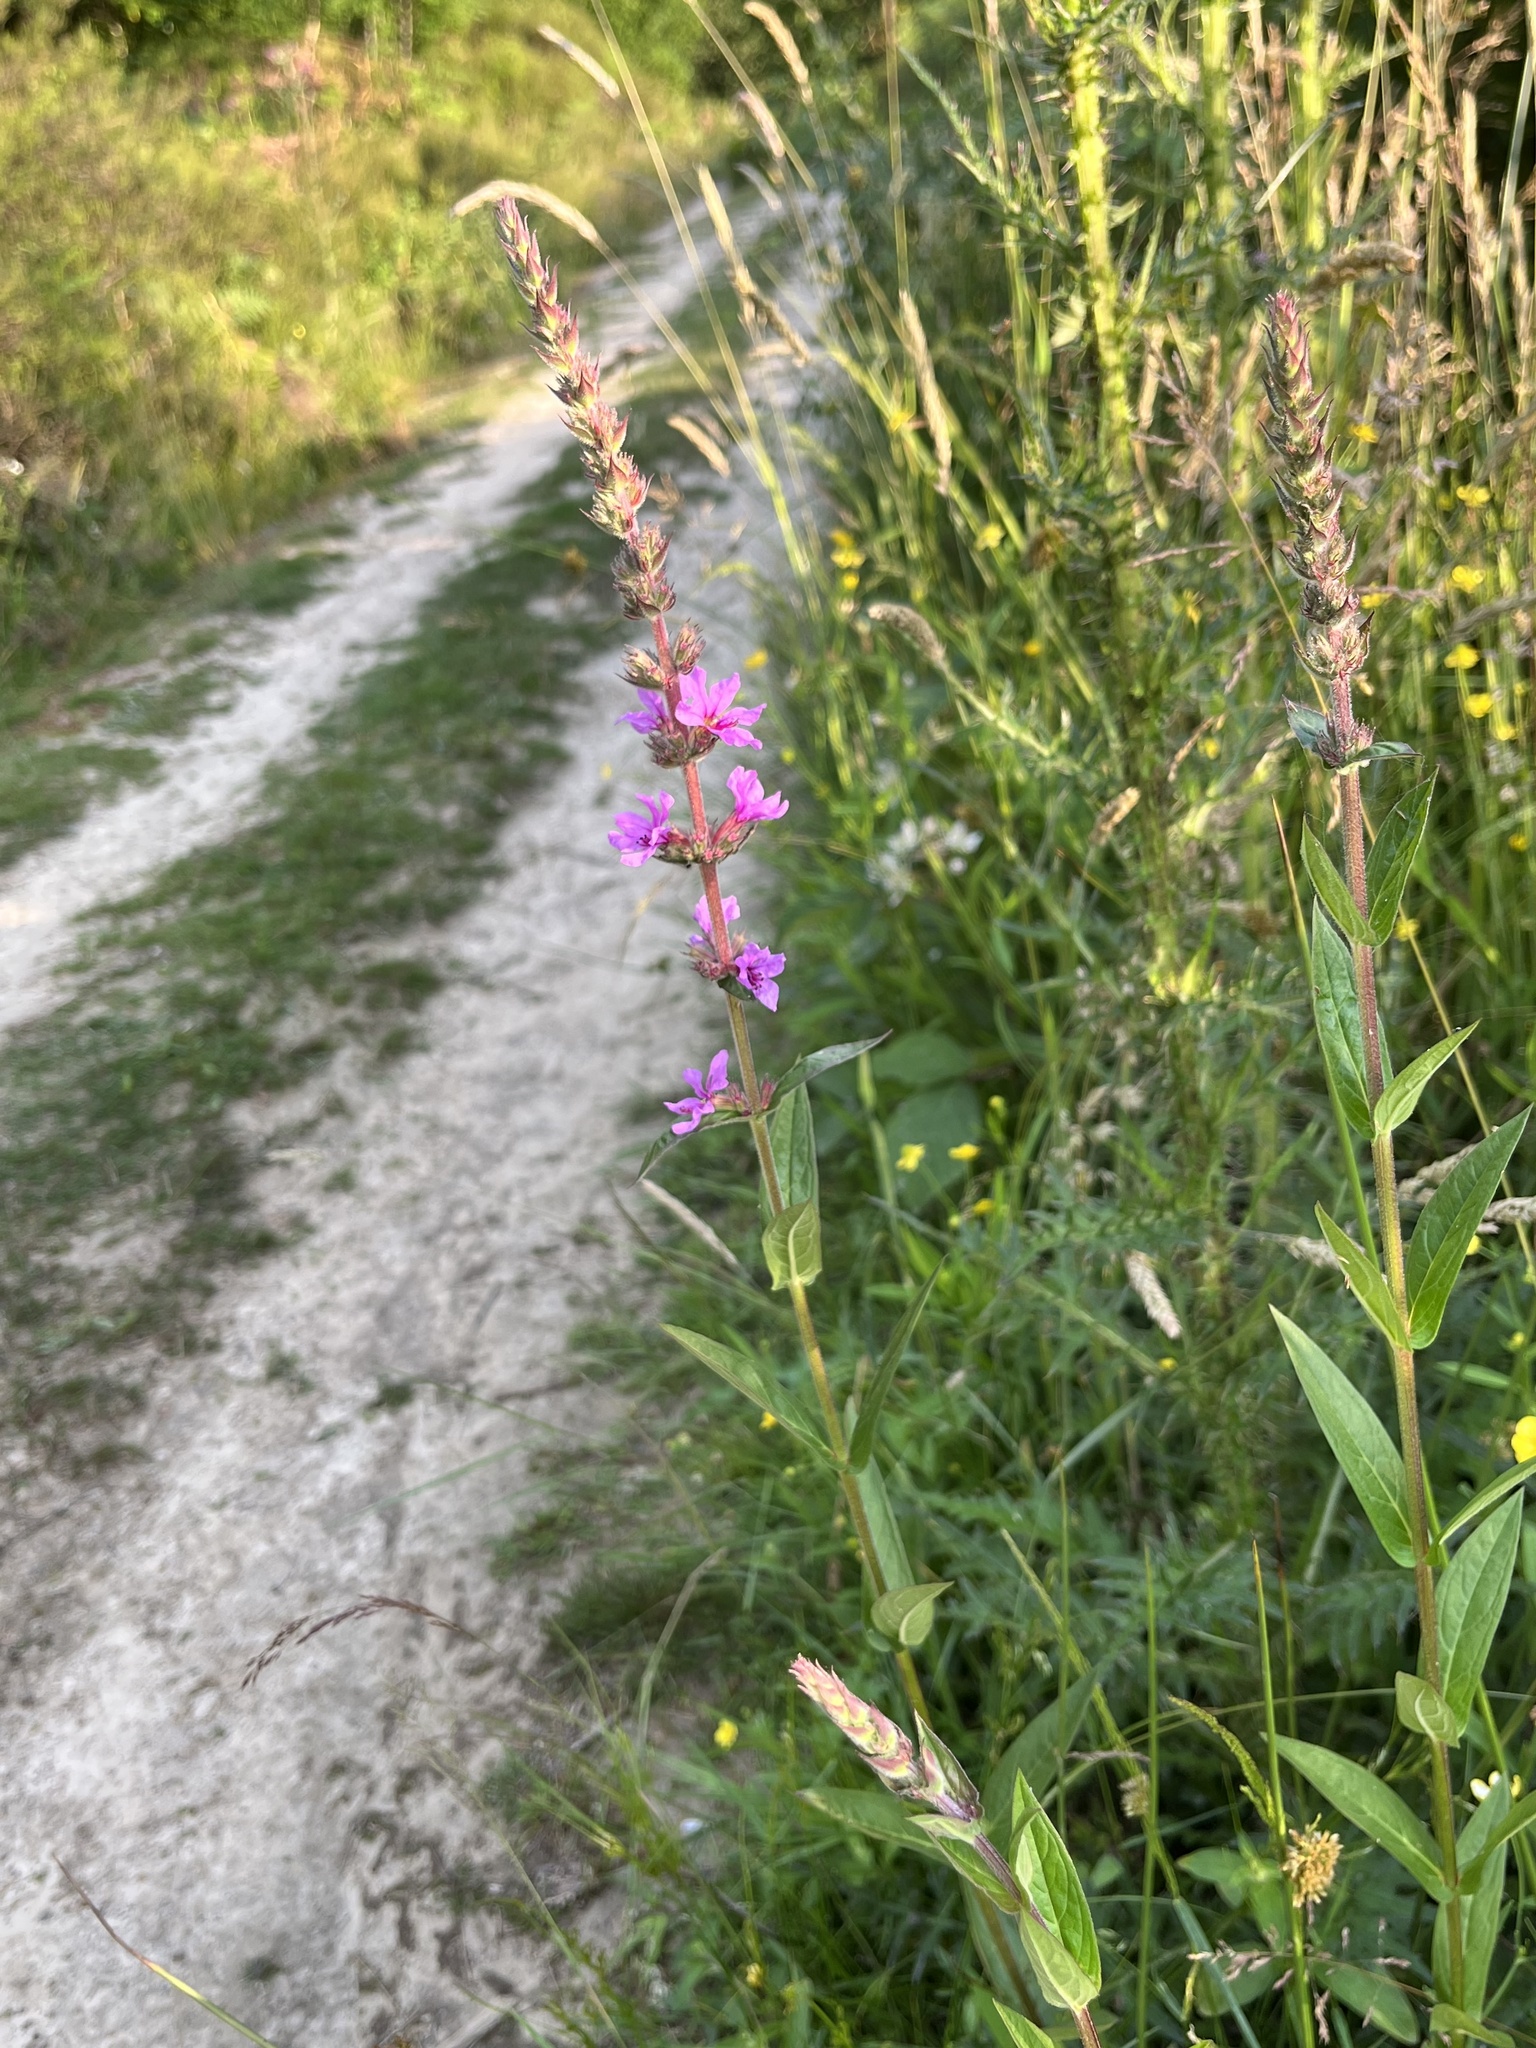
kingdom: Plantae
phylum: Tracheophyta
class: Magnoliopsida
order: Myrtales
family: Lythraceae
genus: Lythrum
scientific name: Lythrum salicaria
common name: Purple loosestrife
